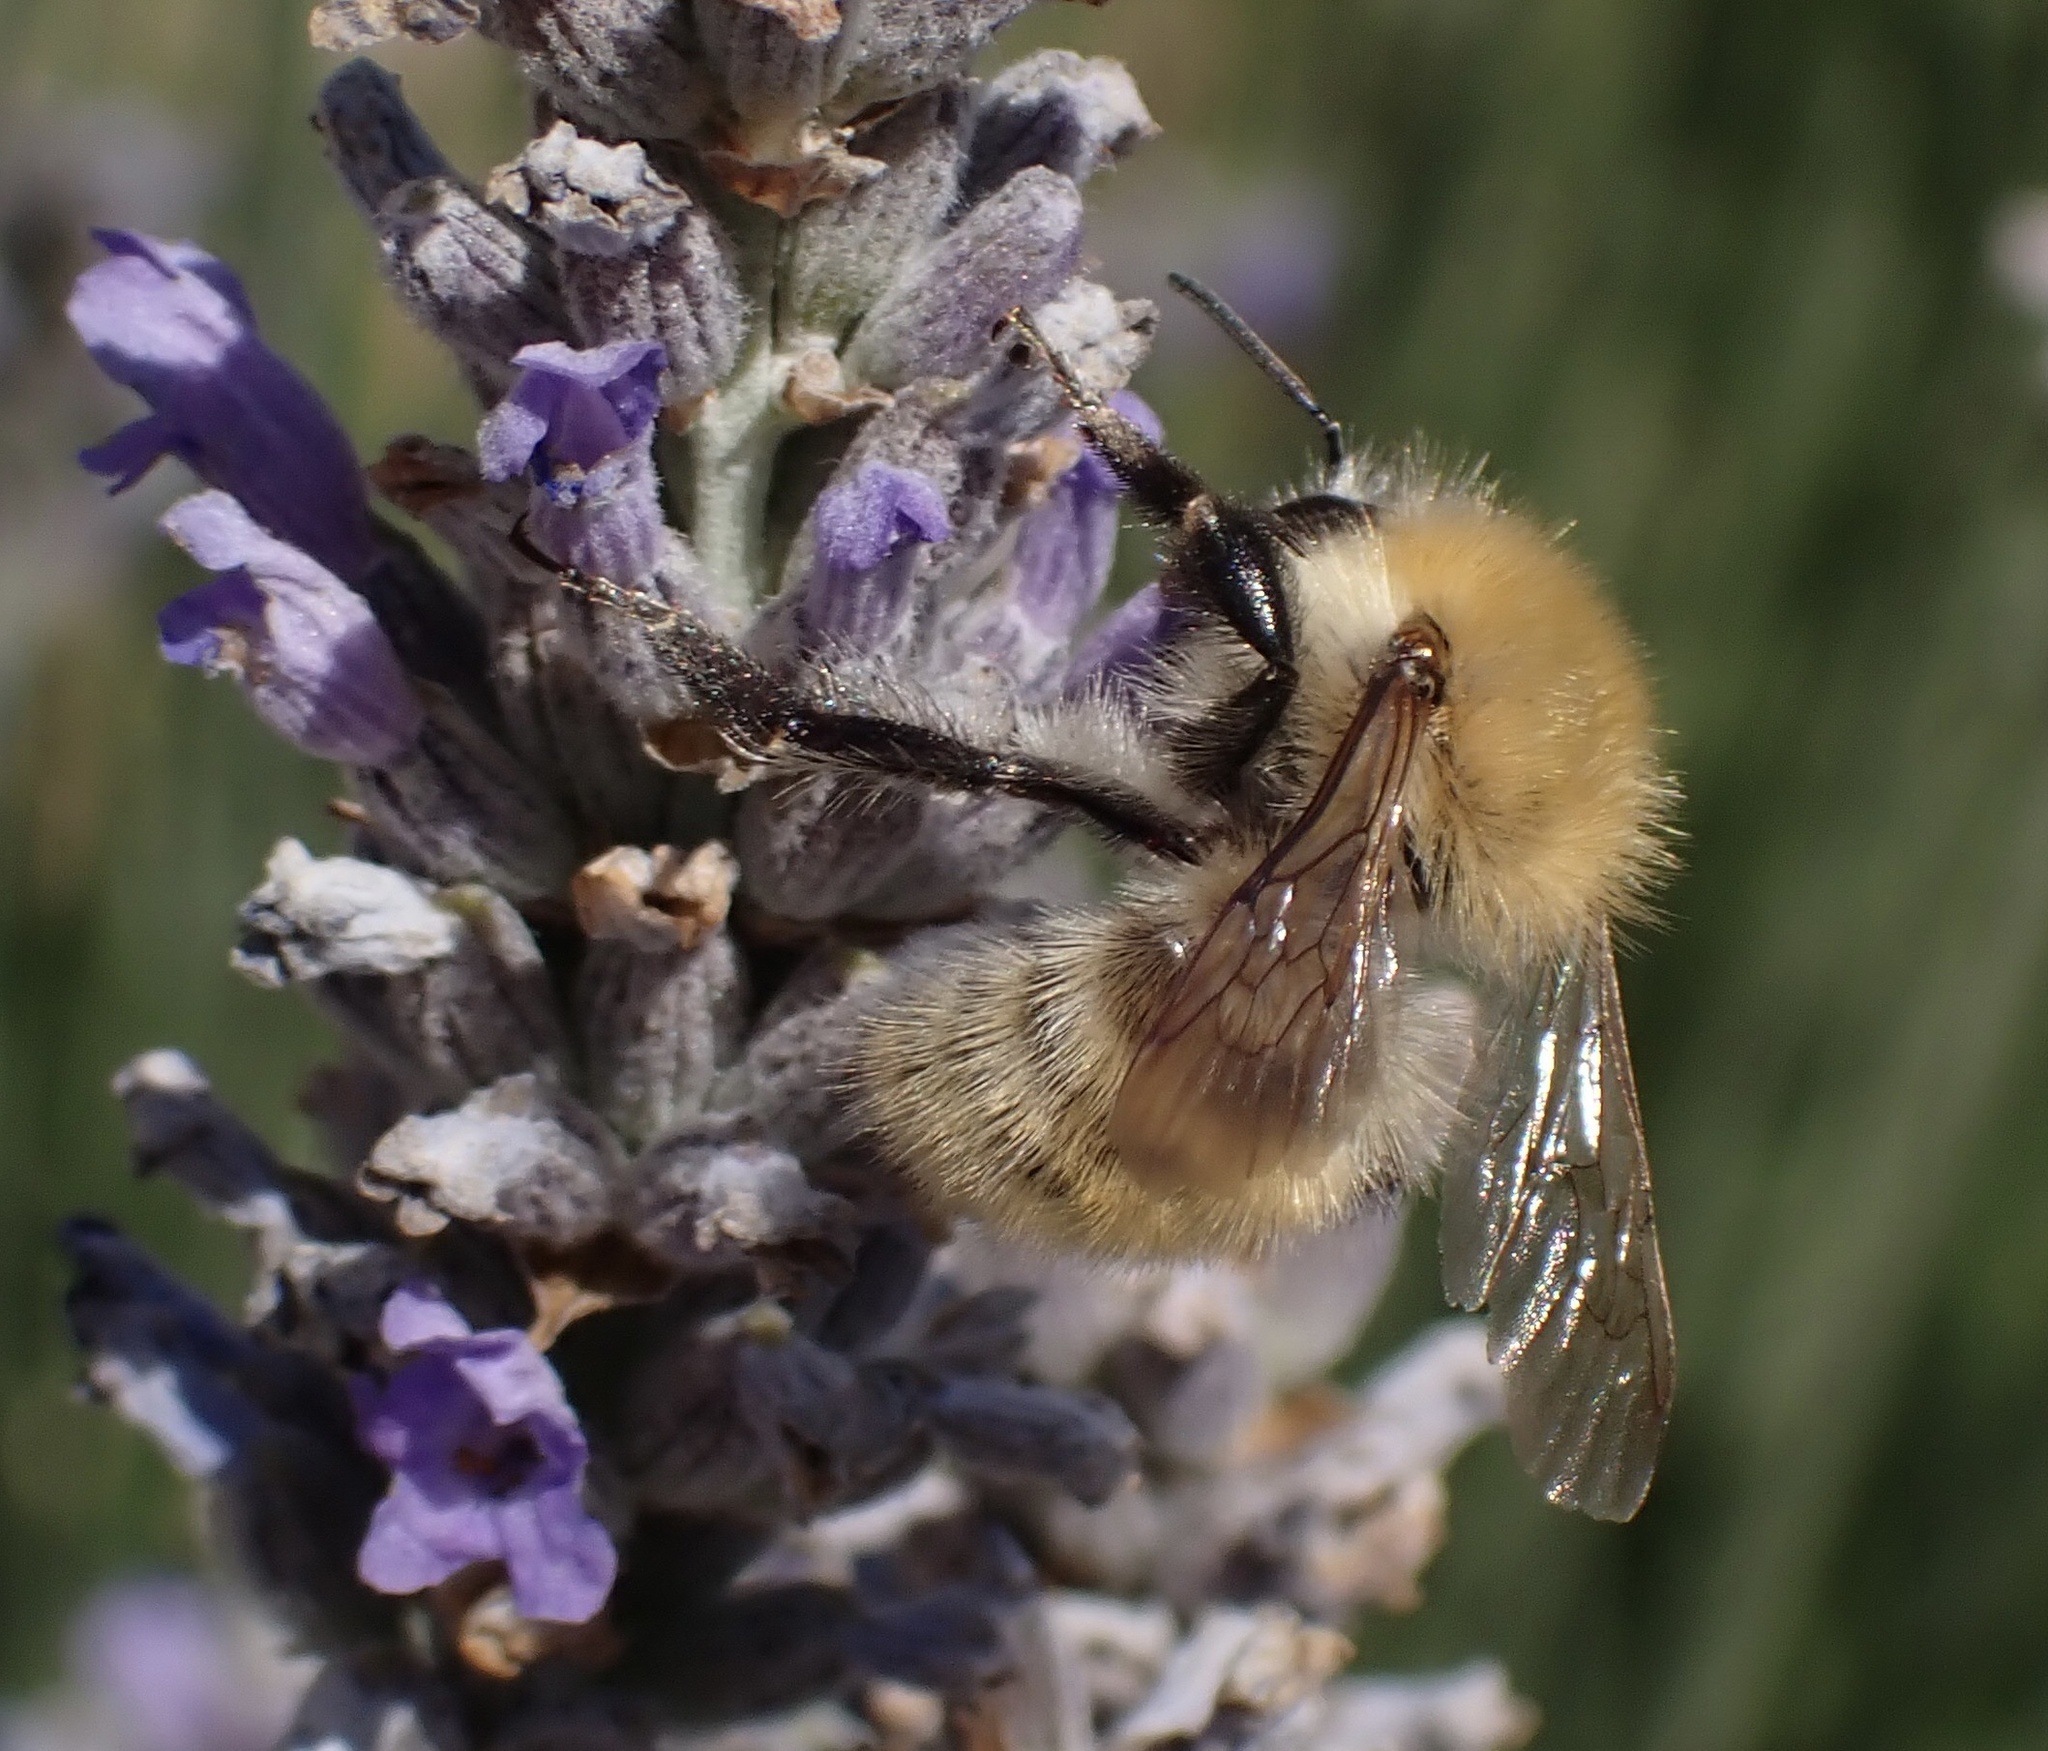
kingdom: Animalia
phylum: Arthropoda
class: Insecta
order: Hymenoptera
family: Apidae
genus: Bombus
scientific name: Bombus pascuorum
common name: Common carder bee
